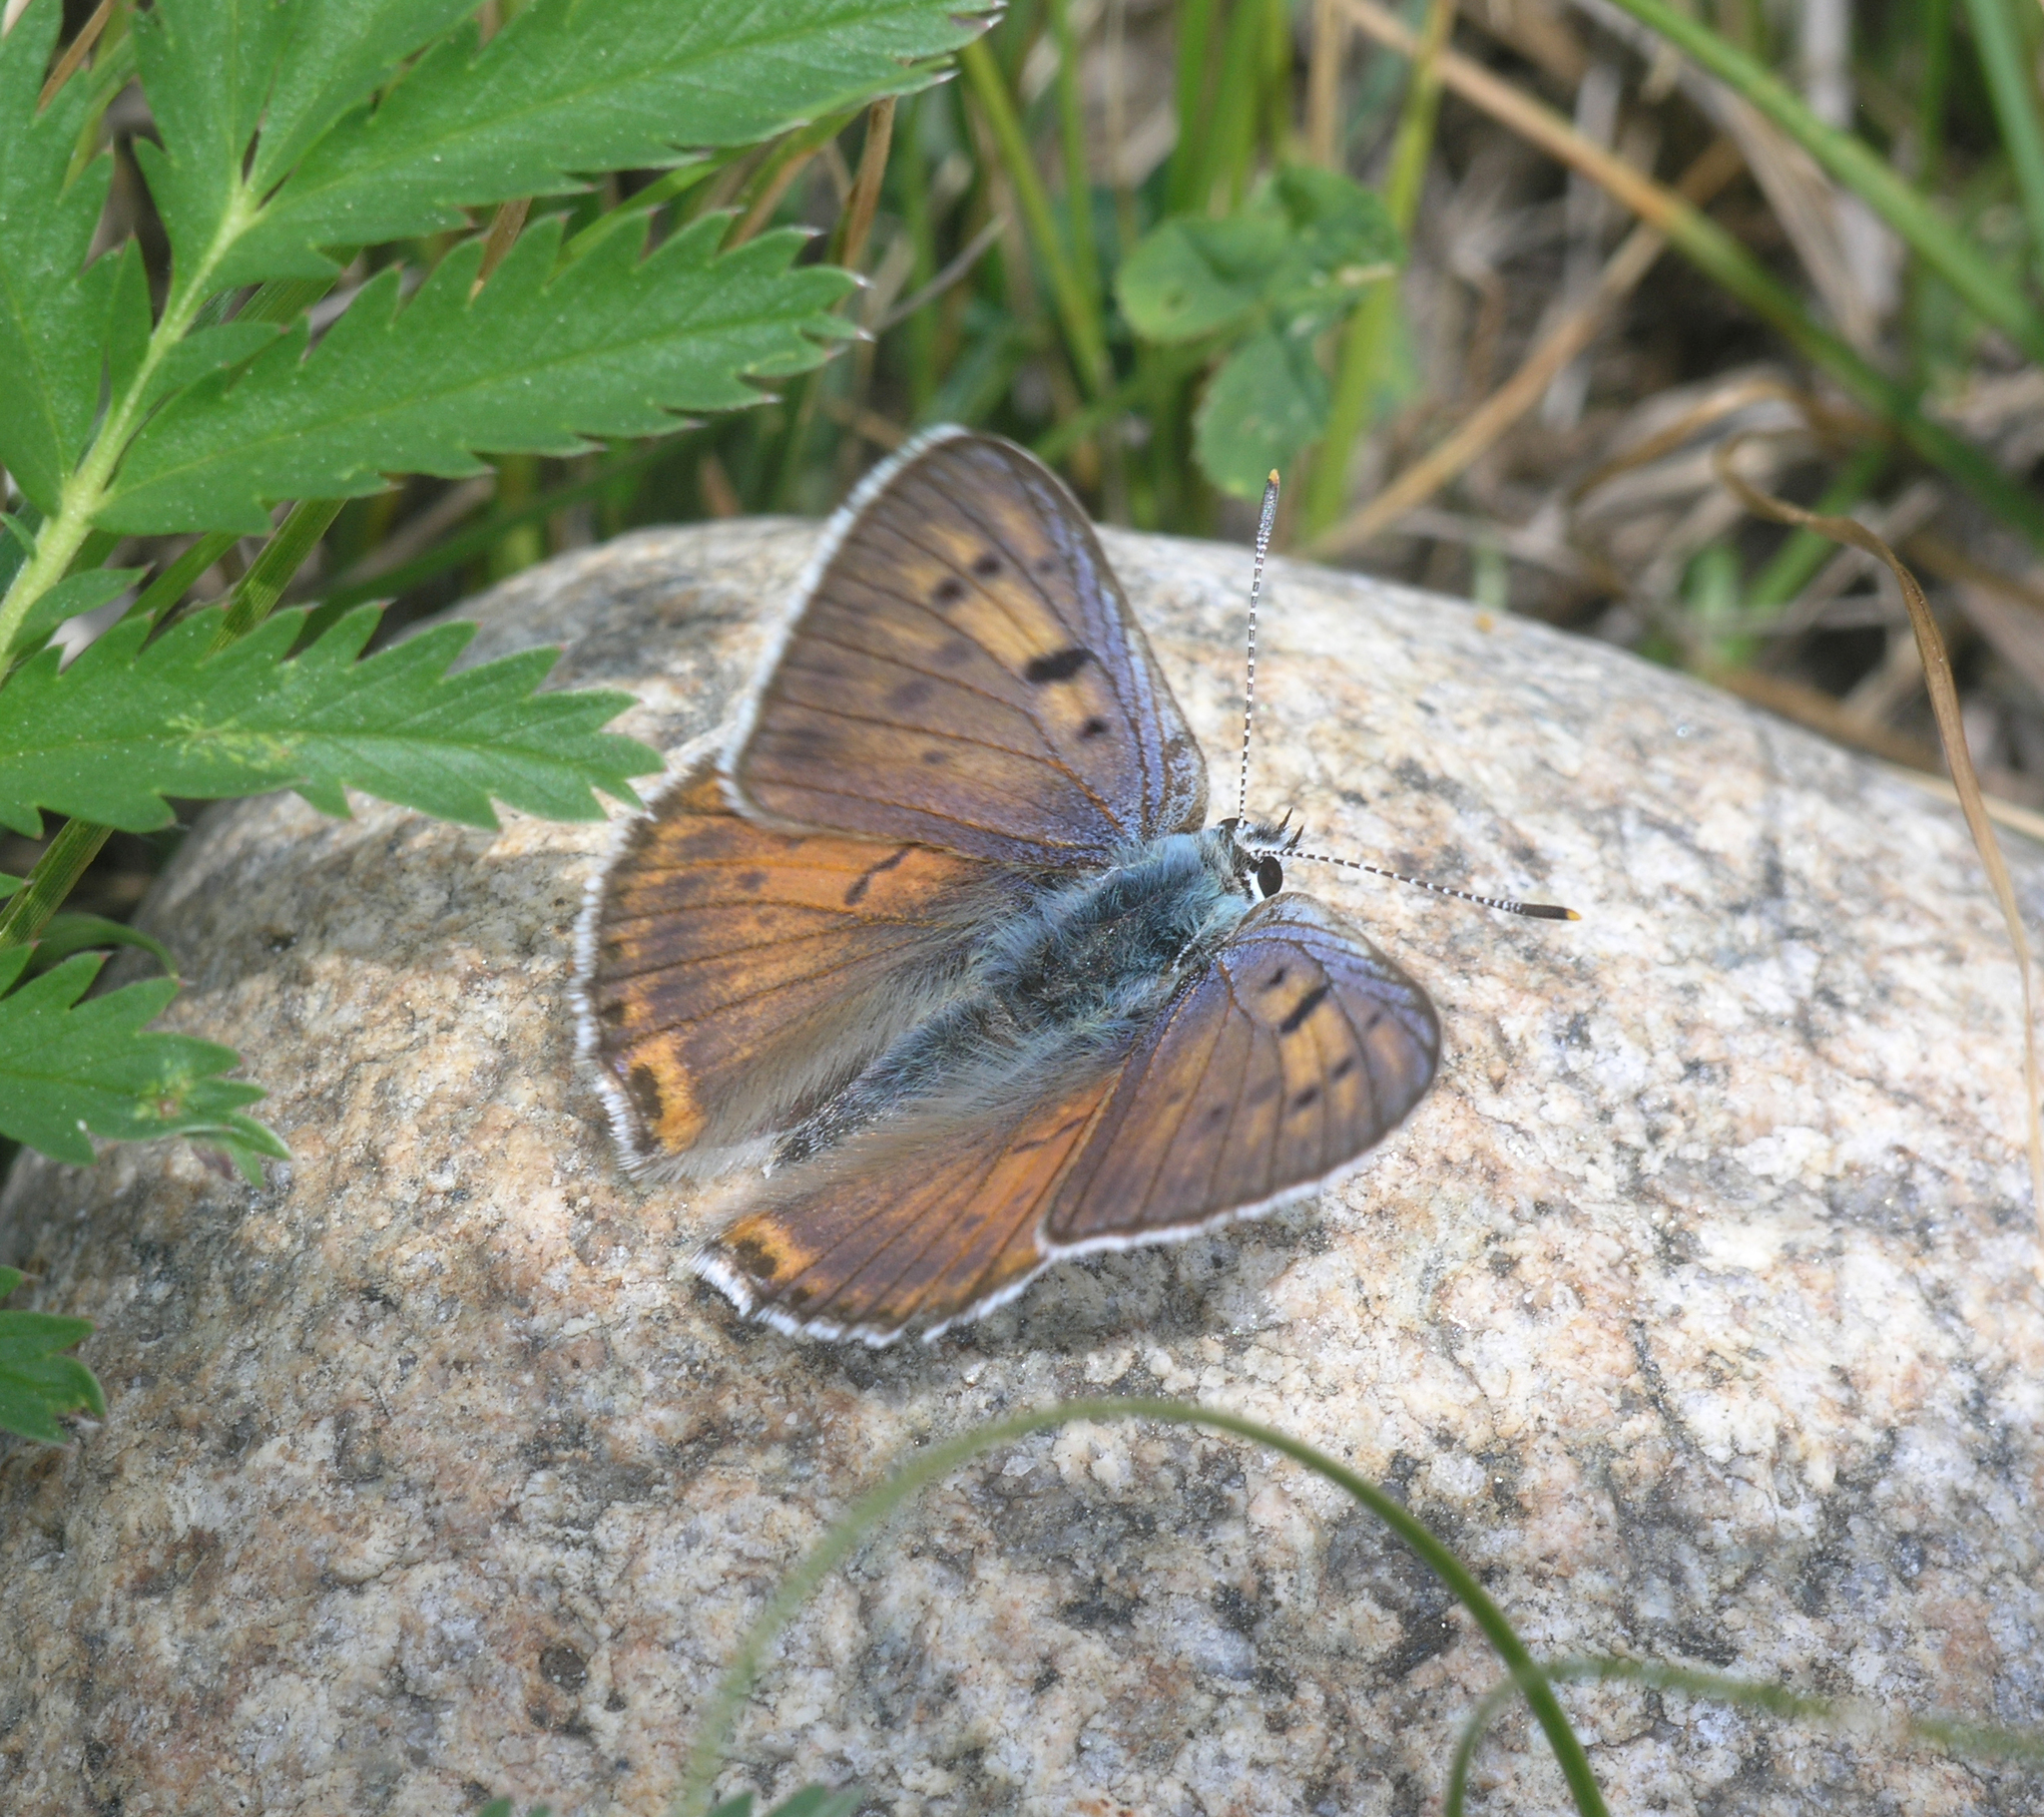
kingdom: Animalia
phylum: Arthropoda
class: Insecta
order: Lepidoptera
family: Lycaenidae
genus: Lycaena
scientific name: Lycaena alciphron
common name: Purple-shot copper
